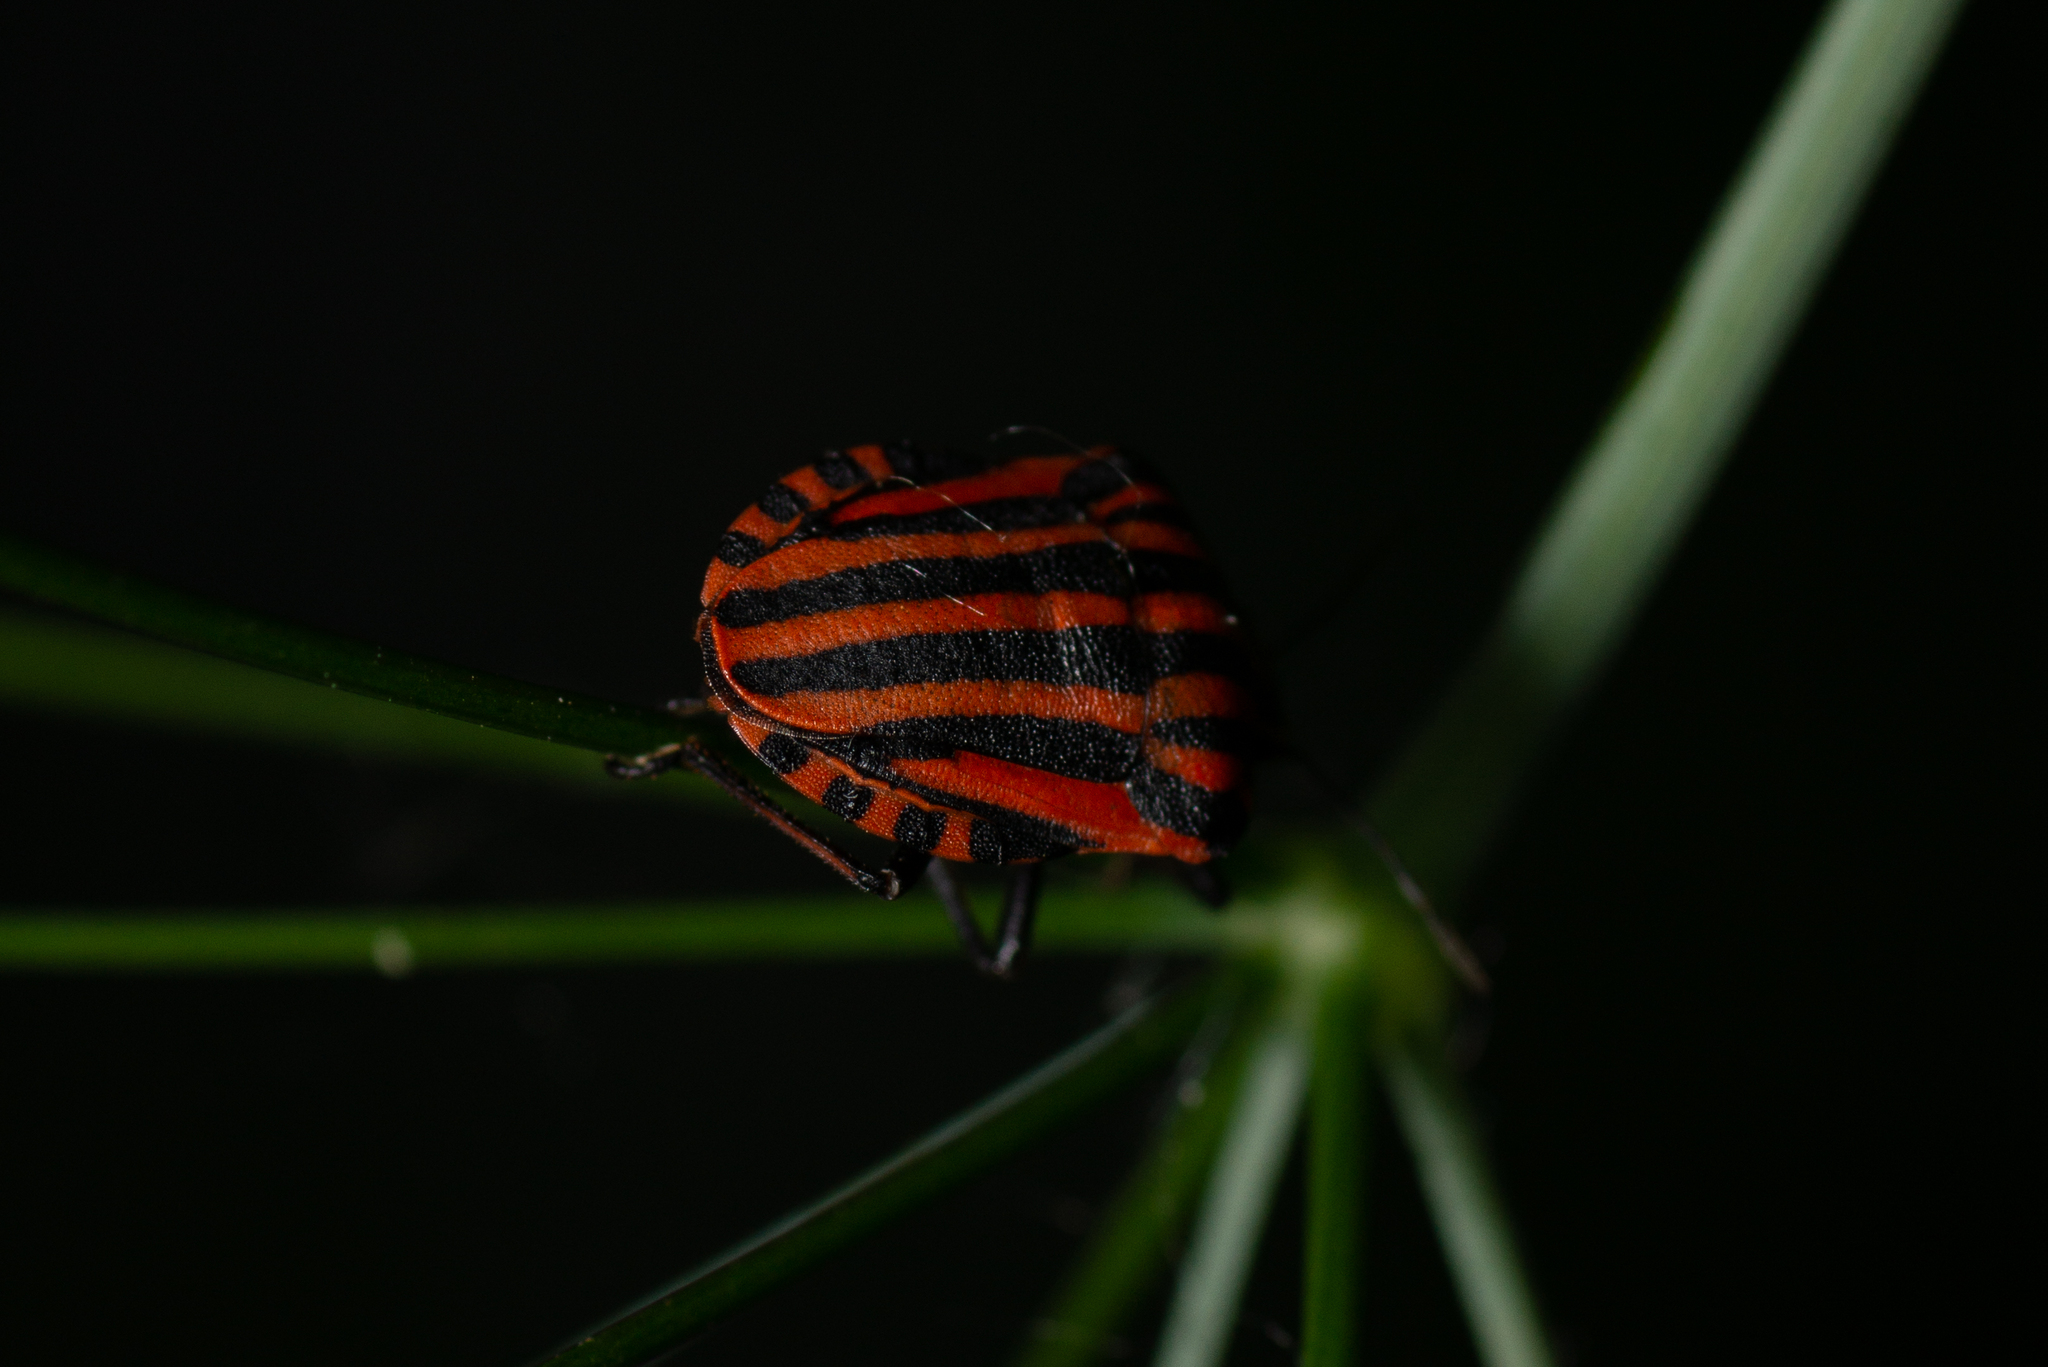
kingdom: Animalia
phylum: Arthropoda
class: Insecta
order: Hemiptera
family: Pentatomidae
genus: Graphosoma
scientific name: Graphosoma italicum
